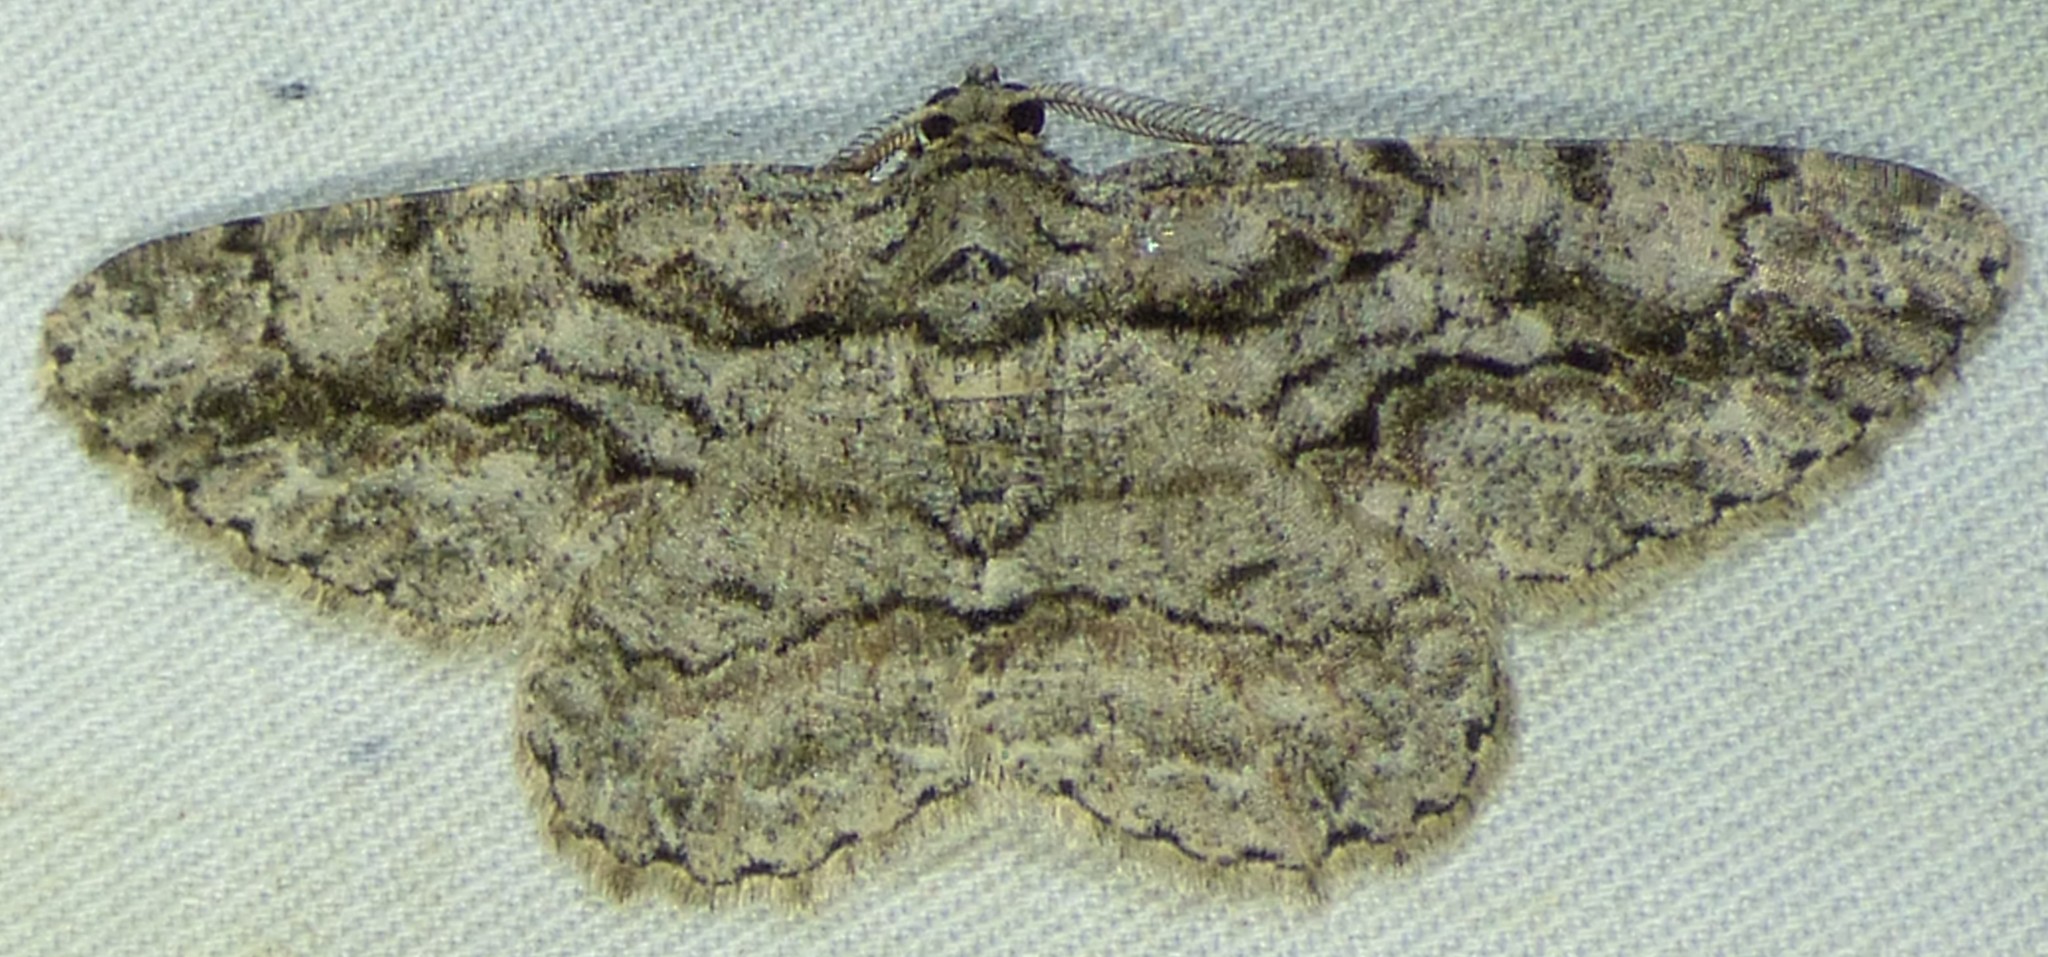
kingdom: Animalia
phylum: Arthropoda
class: Insecta
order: Lepidoptera
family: Geometridae
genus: Anavitrinella
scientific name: Anavitrinella pampinaria
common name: Common gray
